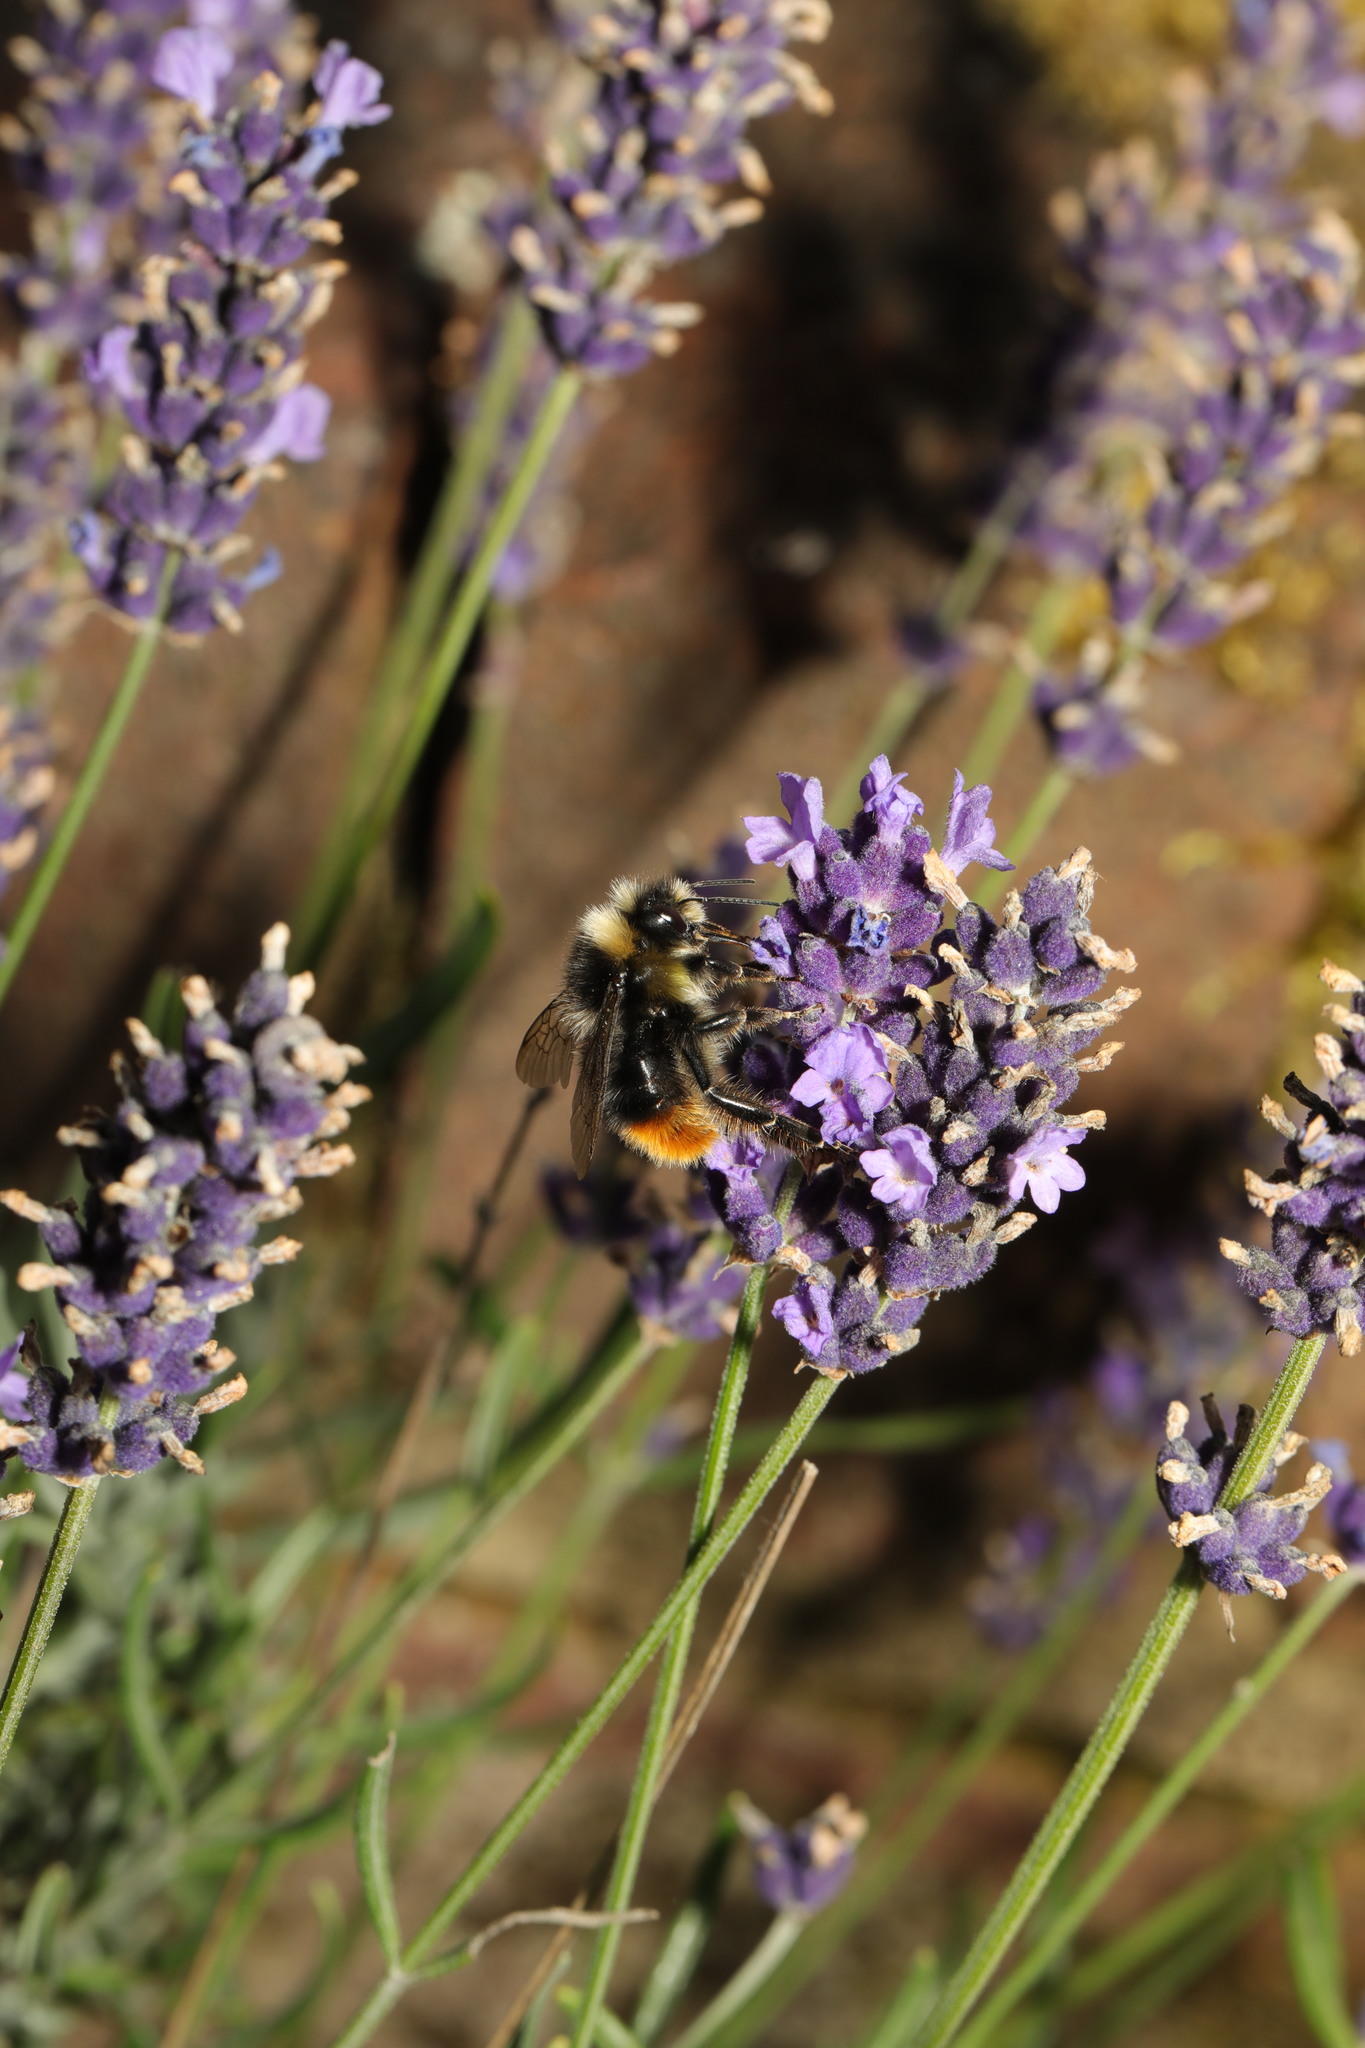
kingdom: Animalia
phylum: Arthropoda
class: Insecta
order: Hymenoptera
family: Apidae
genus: Bombus
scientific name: Bombus lapidarius
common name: Large red-tailed humble-bee
